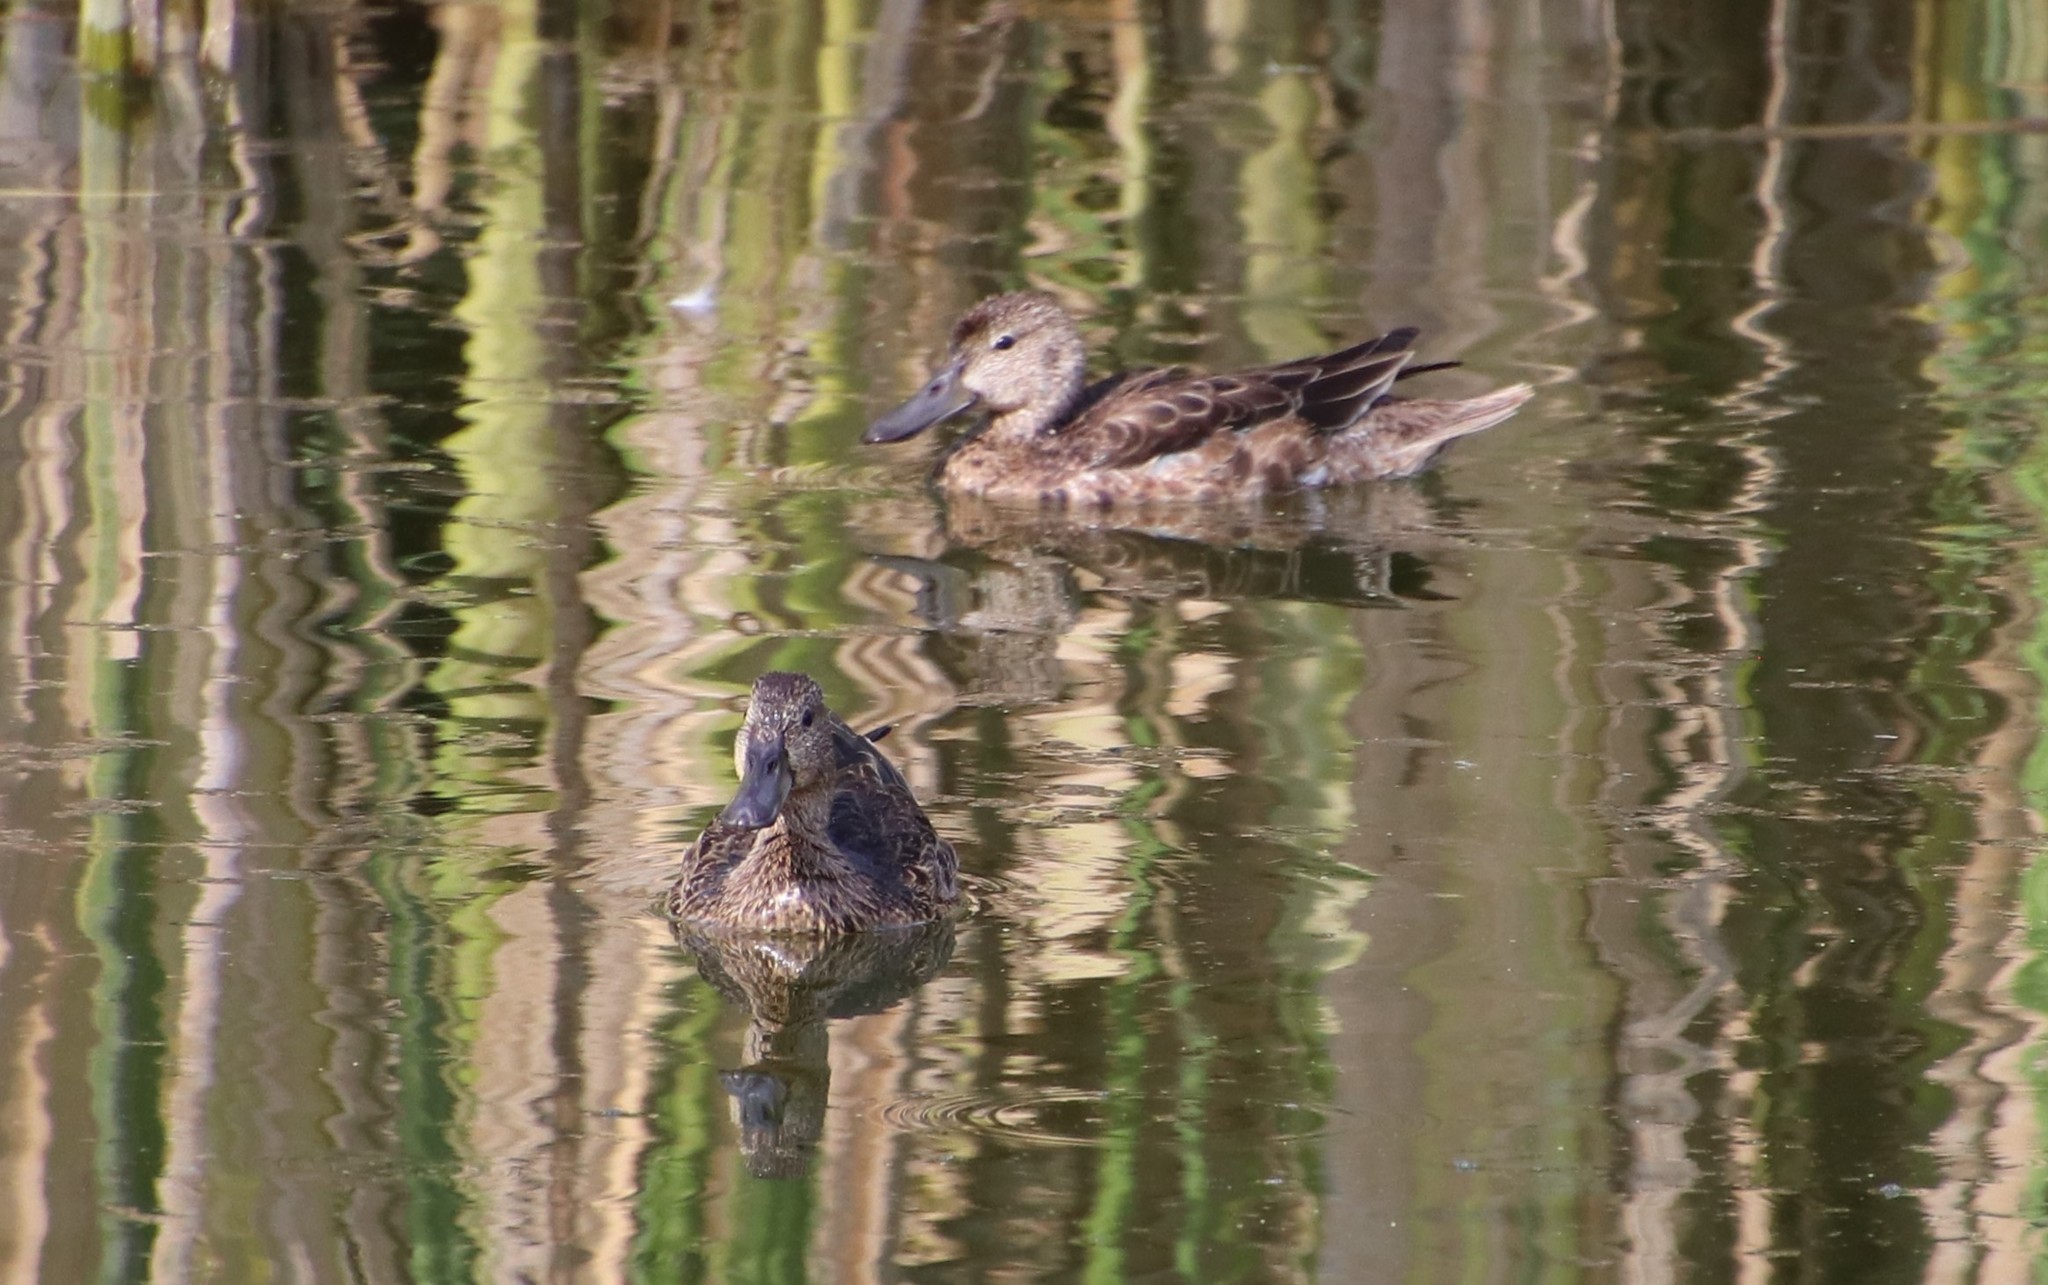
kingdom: Animalia
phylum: Chordata
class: Aves
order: Anseriformes
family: Anatidae
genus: Spatula
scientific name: Spatula cyanoptera
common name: Cinnamon teal
